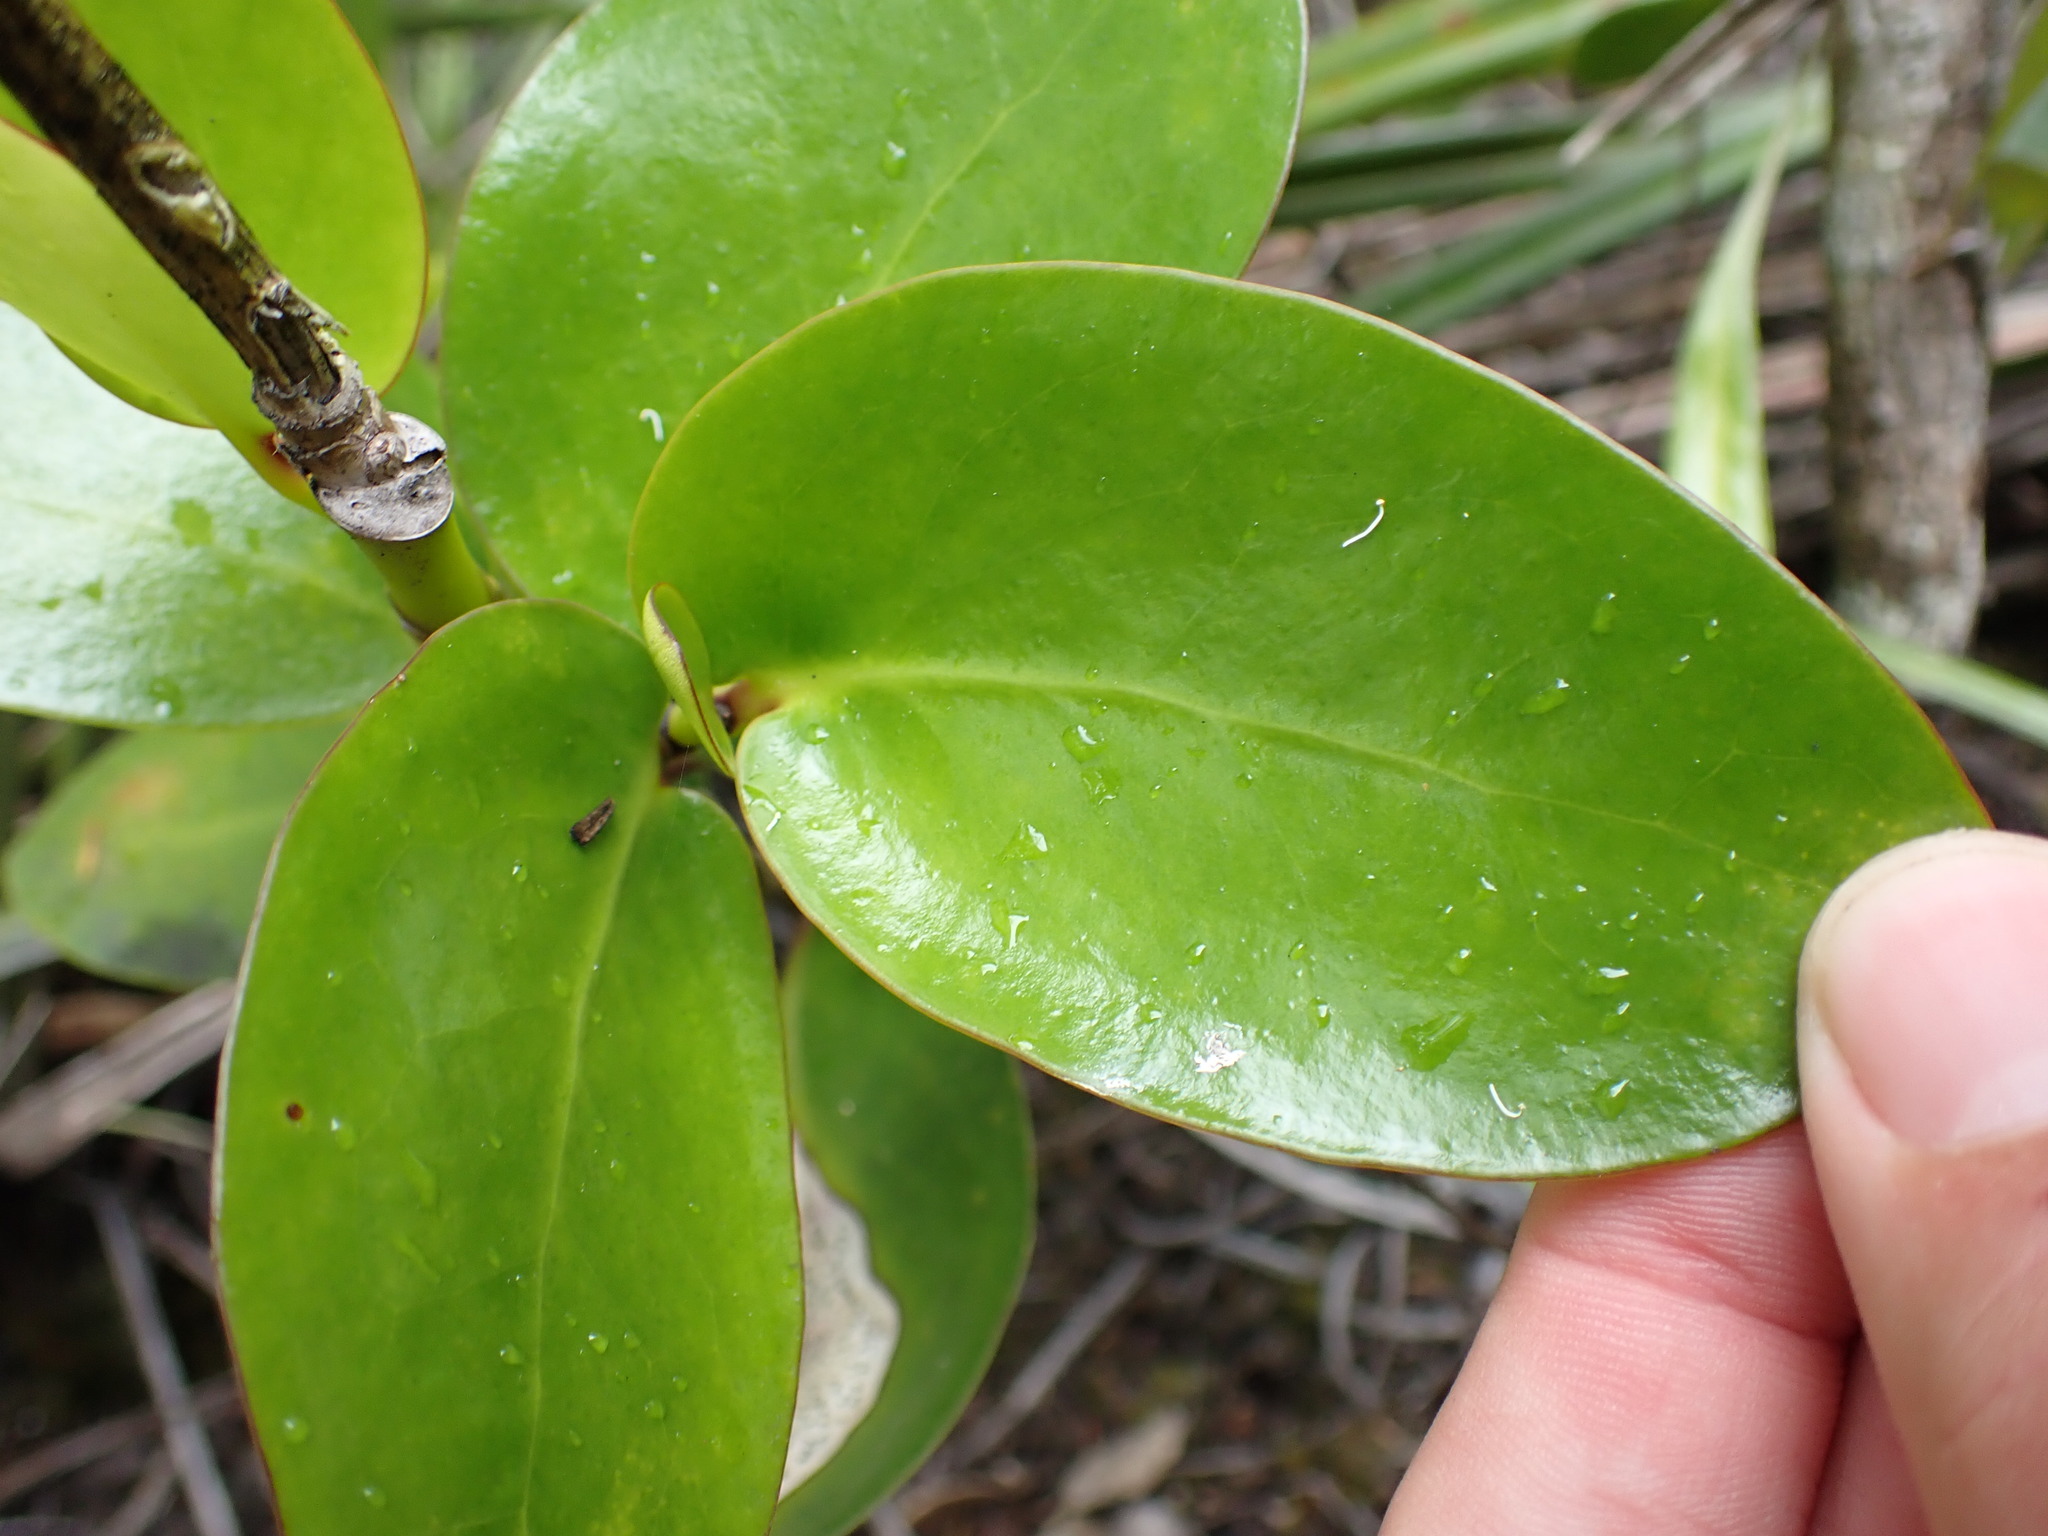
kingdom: Plantae
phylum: Tracheophyta
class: Magnoliopsida
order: Apiales
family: Griseliniaceae
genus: Griselinia
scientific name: Griselinia lucida
